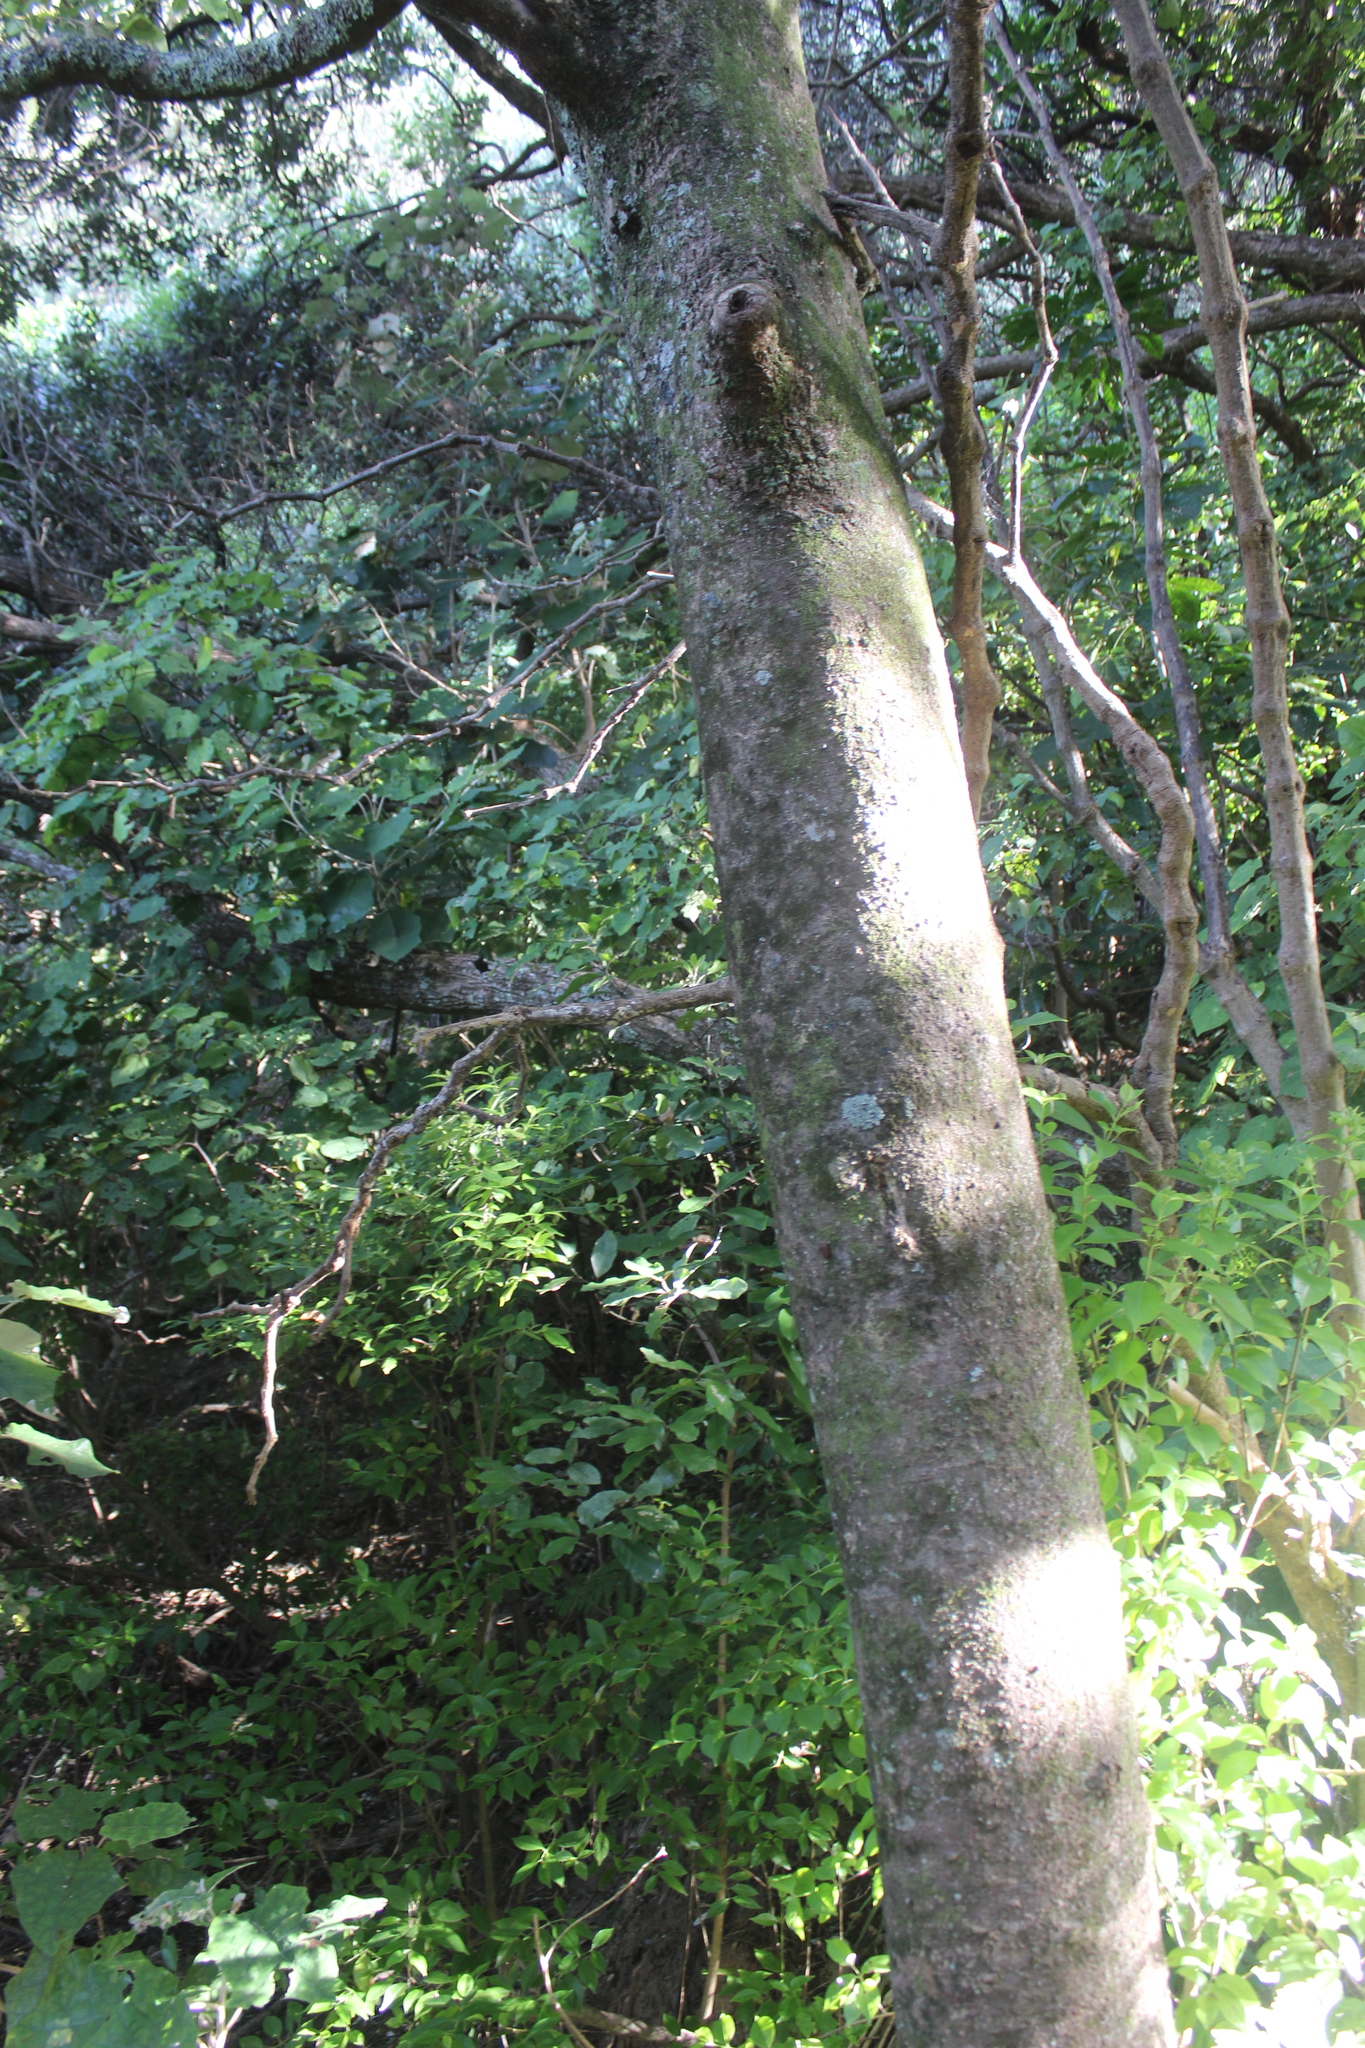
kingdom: Plantae
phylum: Tracheophyta
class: Magnoliopsida
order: Laurales
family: Lauraceae
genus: Litsea
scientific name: Litsea calicaris
